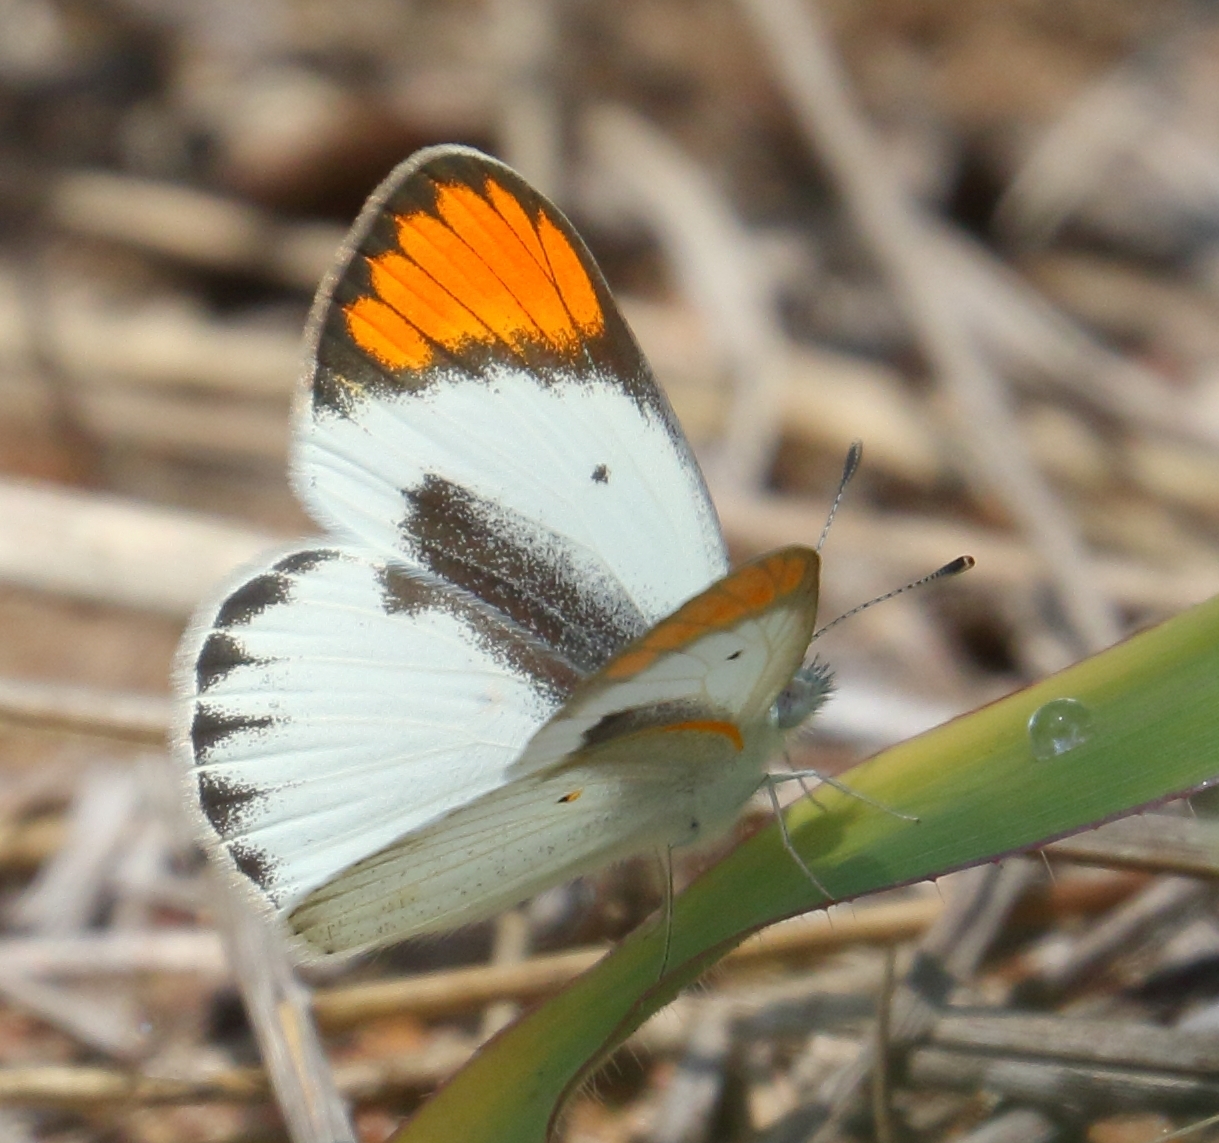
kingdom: Animalia
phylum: Arthropoda
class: Insecta
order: Lepidoptera
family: Pieridae
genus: Colotis
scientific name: Colotis pallene
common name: Bushveld orange tip
